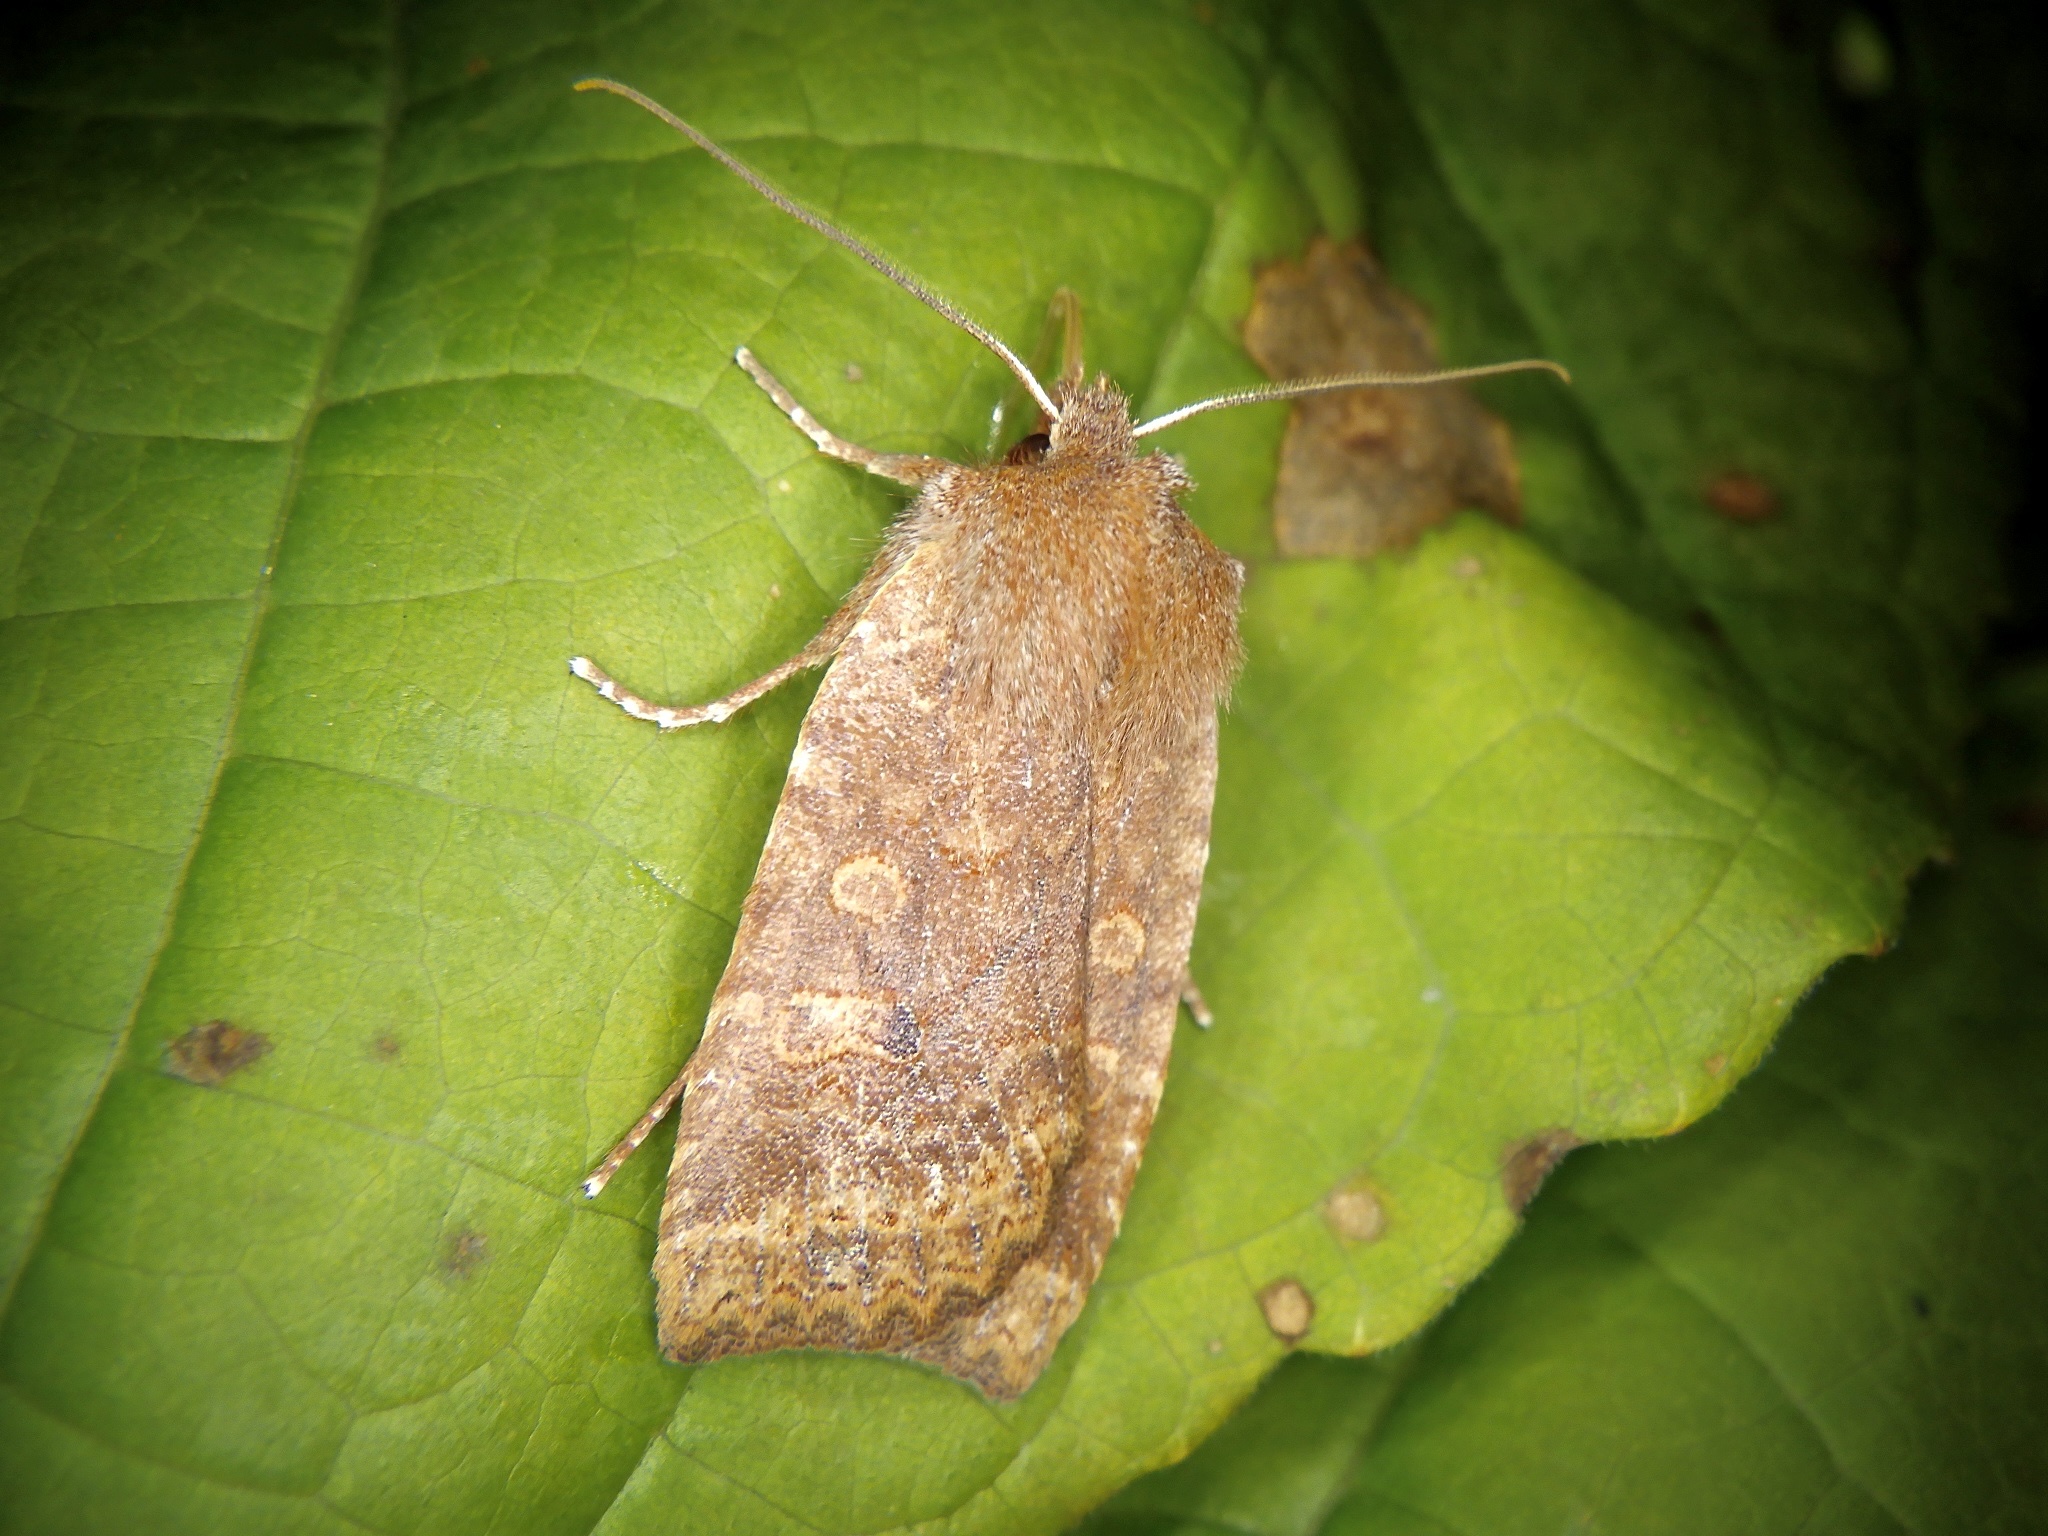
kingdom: Animalia
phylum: Arthropoda
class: Insecta
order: Lepidoptera
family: Noctuidae
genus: Conistra
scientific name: Conistra ardescens
